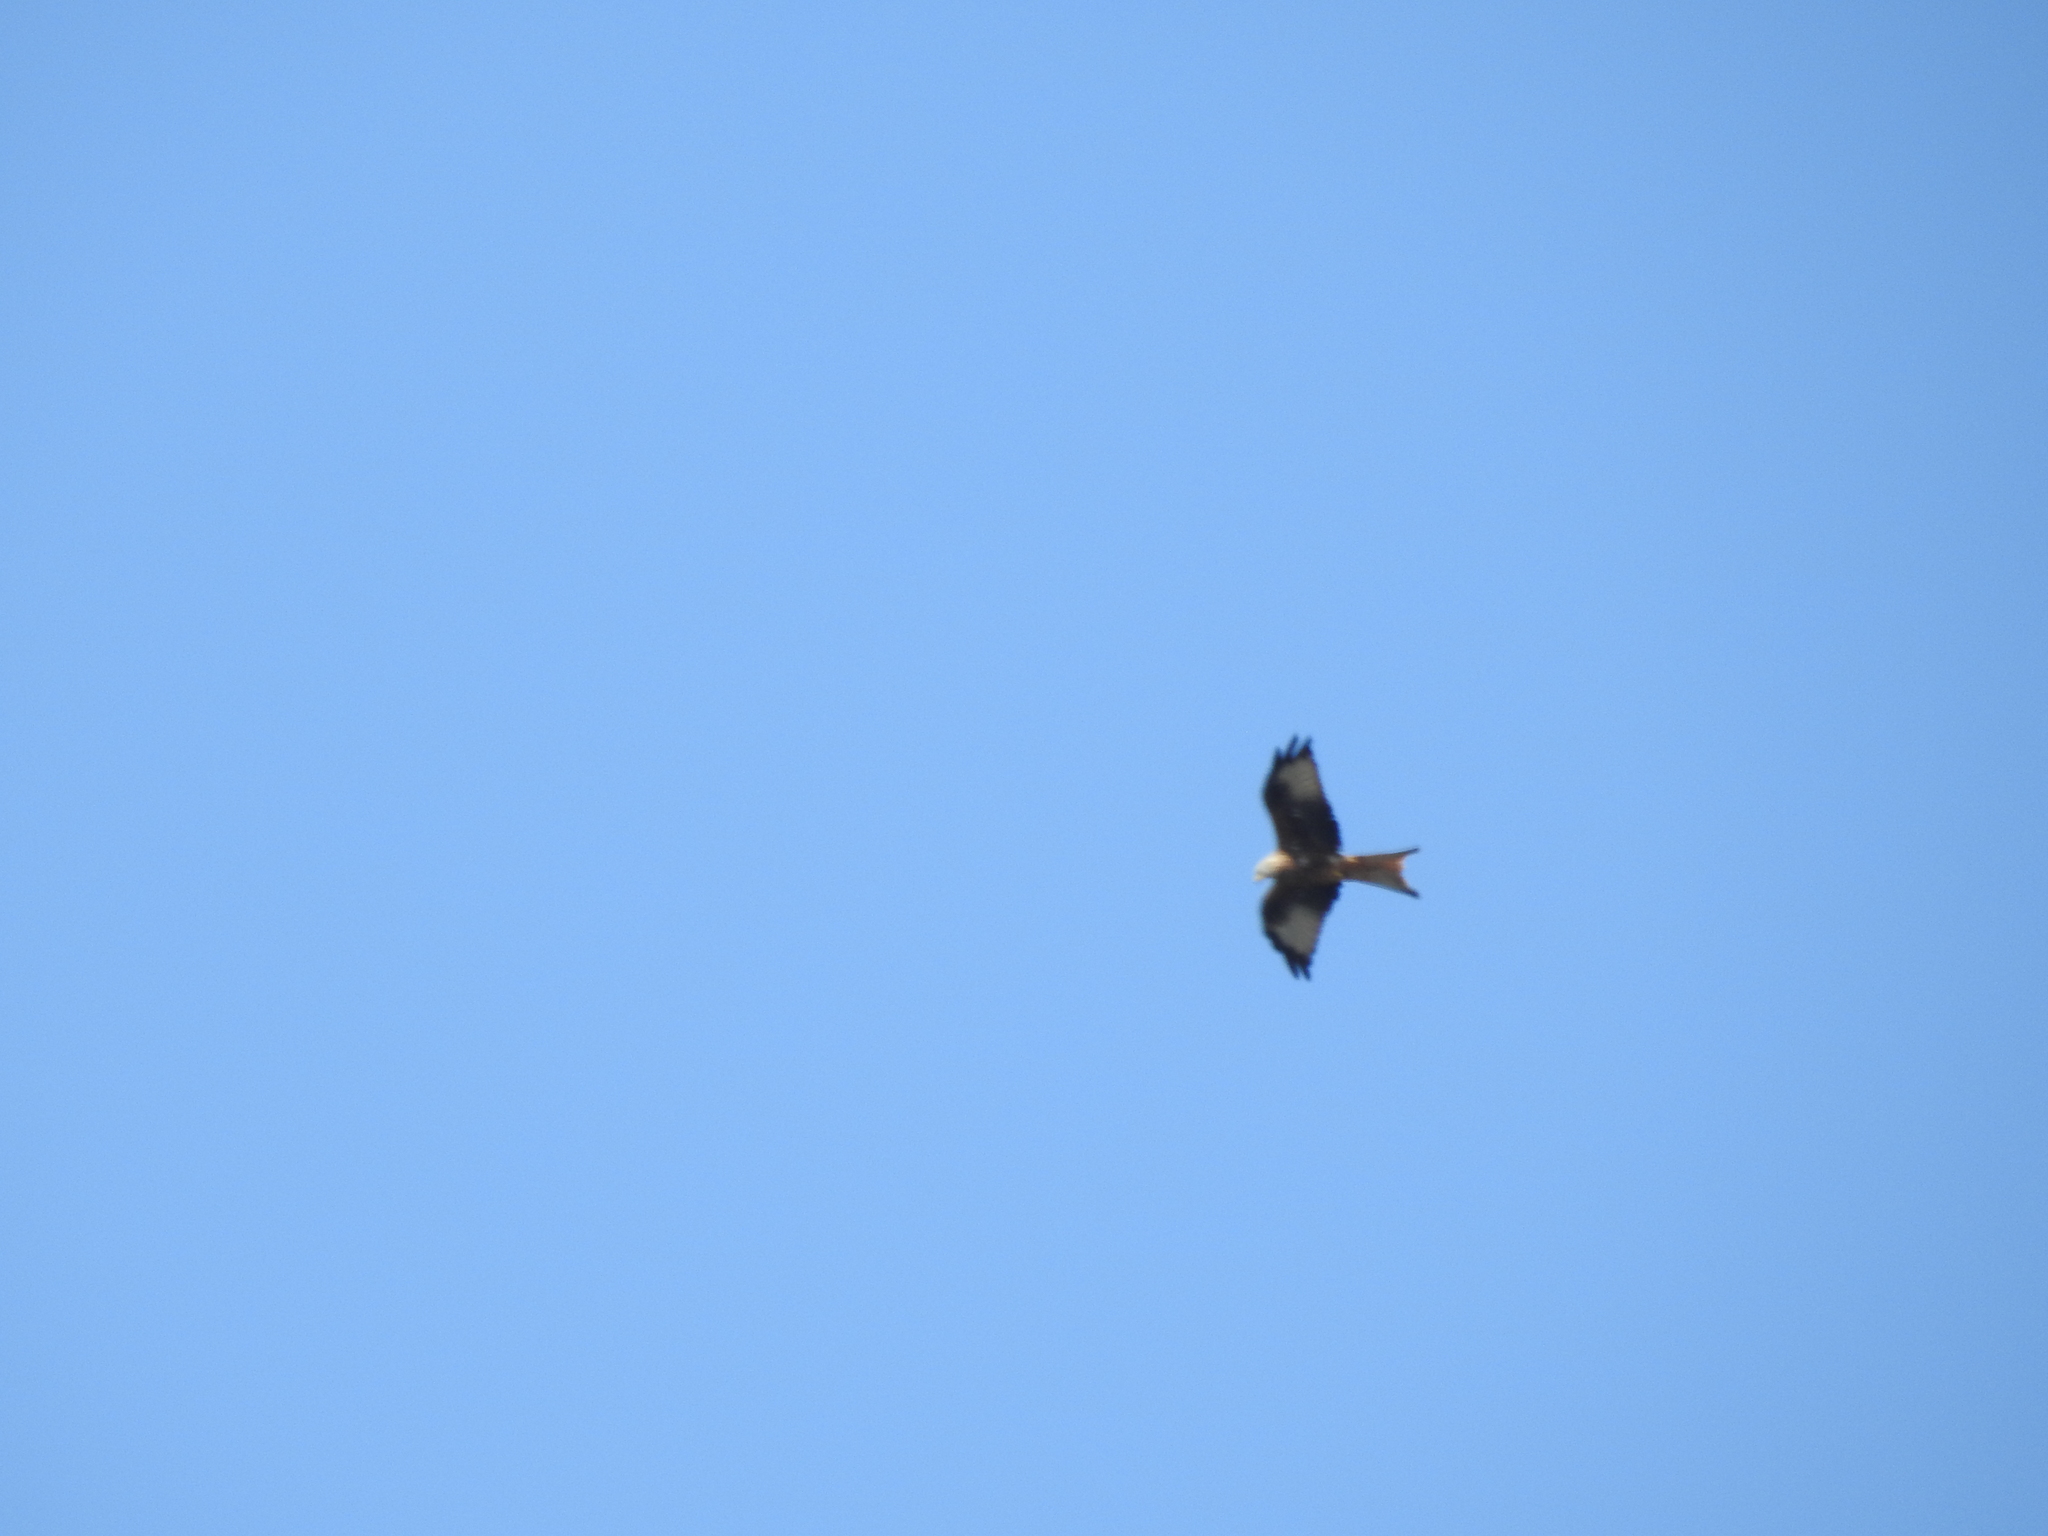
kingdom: Animalia
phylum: Chordata
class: Aves
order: Accipitriformes
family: Accipitridae
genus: Milvus
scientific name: Milvus milvus
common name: Red kite
